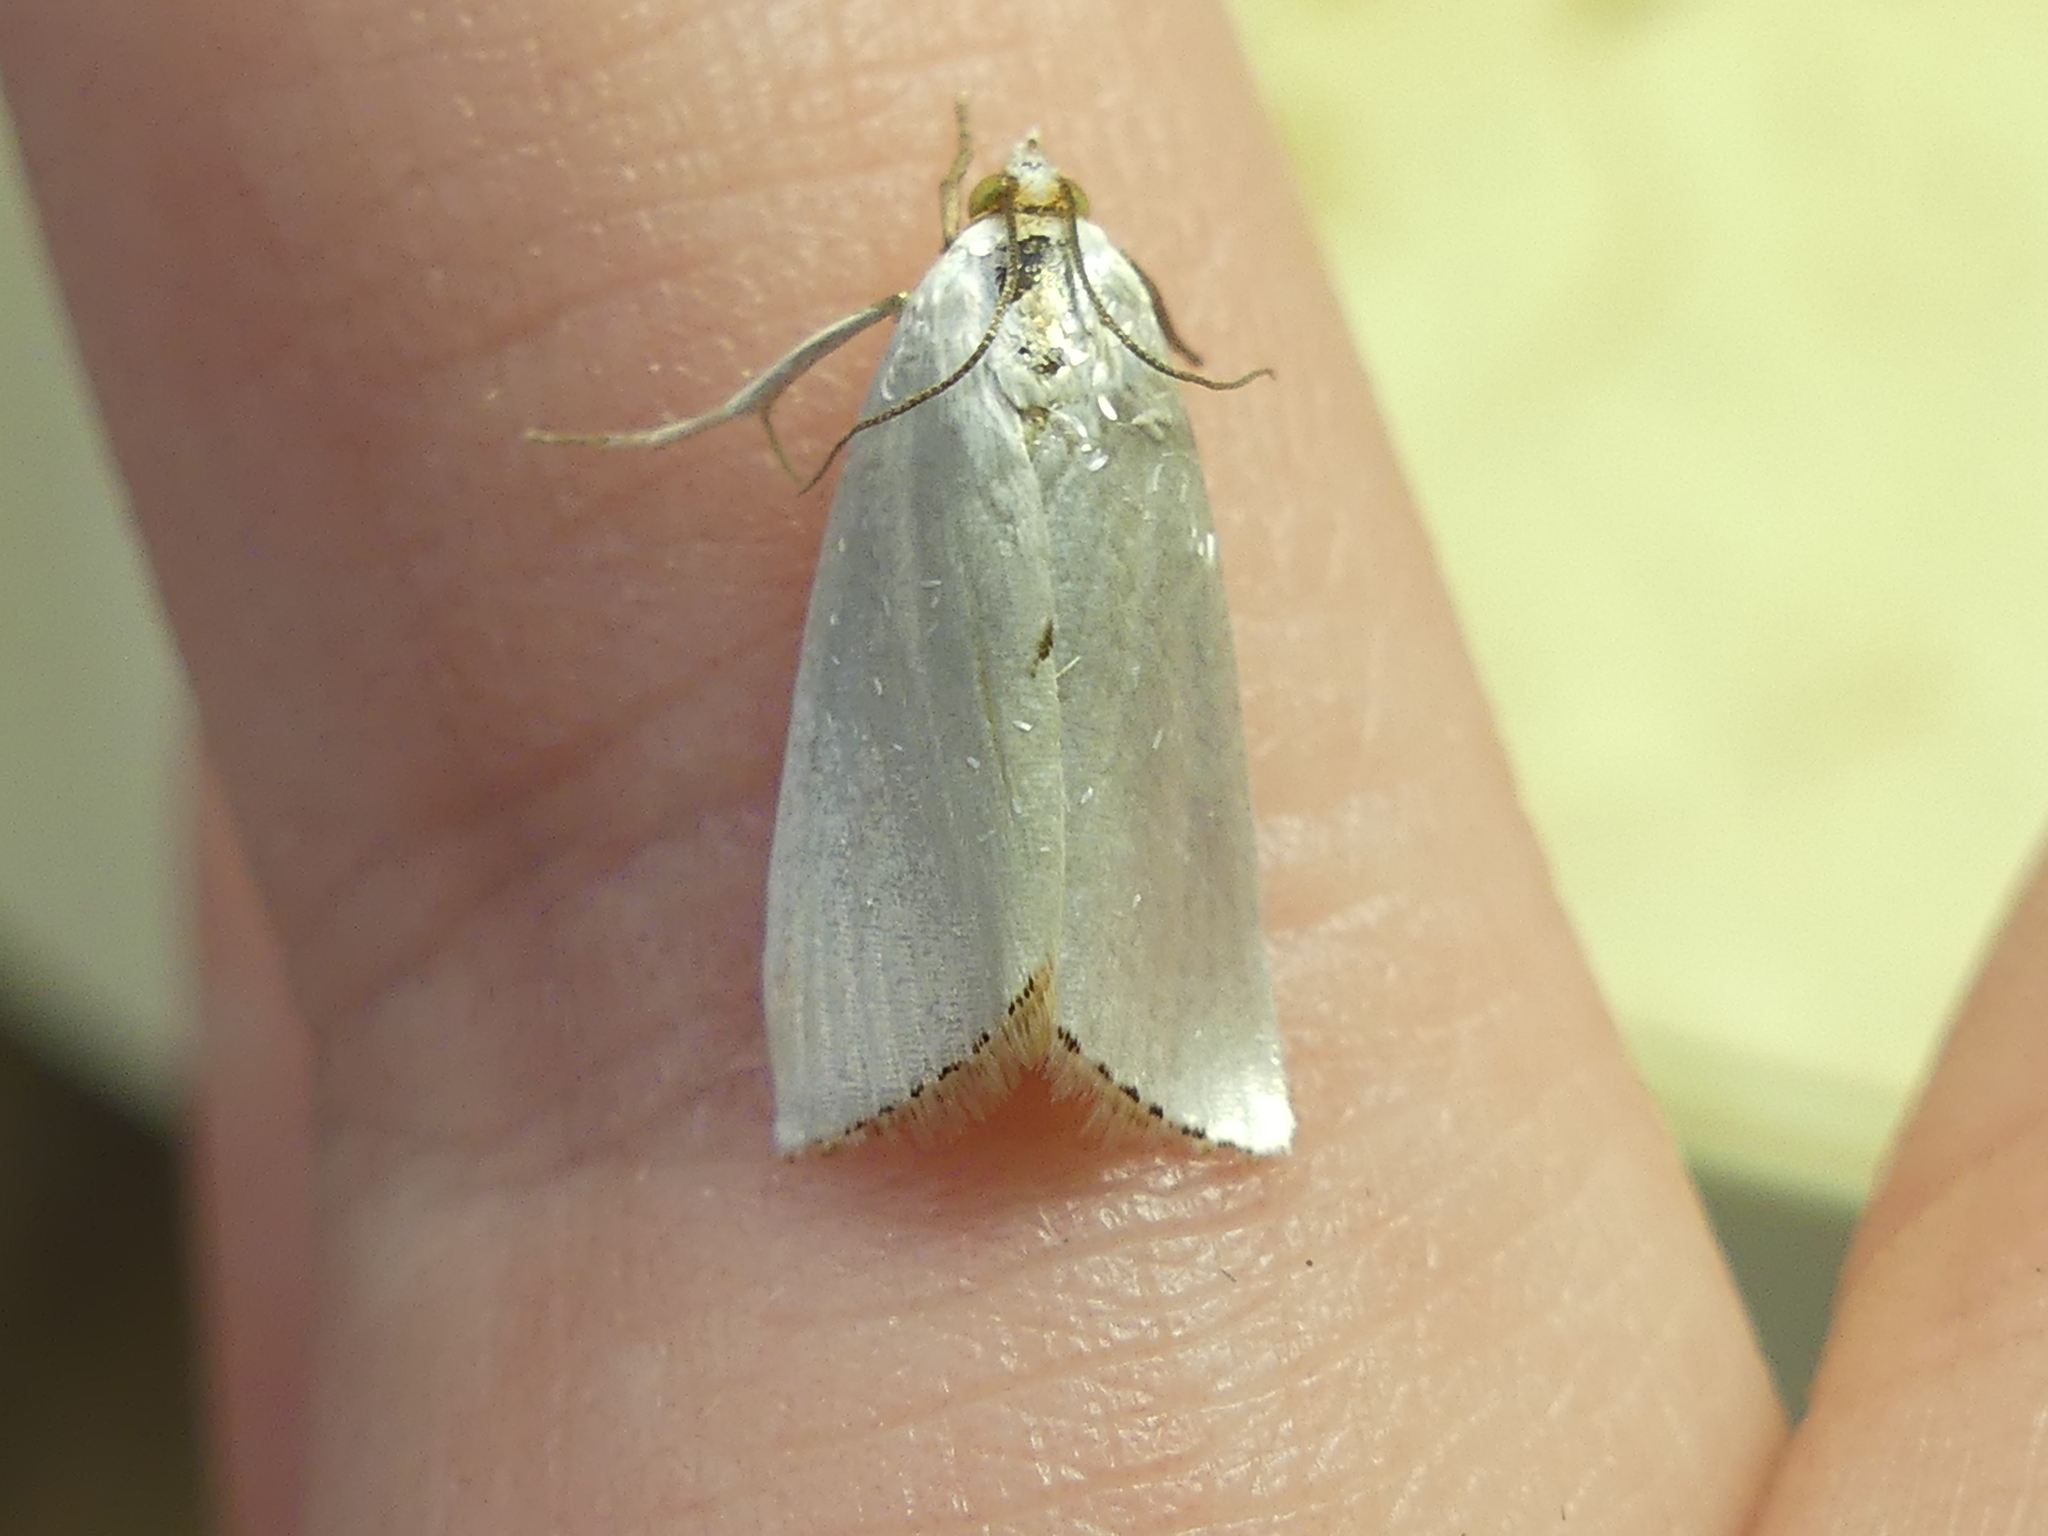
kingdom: Animalia
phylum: Arthropoda
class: Insecta
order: Lepidoptera
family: Crambidae
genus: Argyria
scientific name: Argyria nivalis
